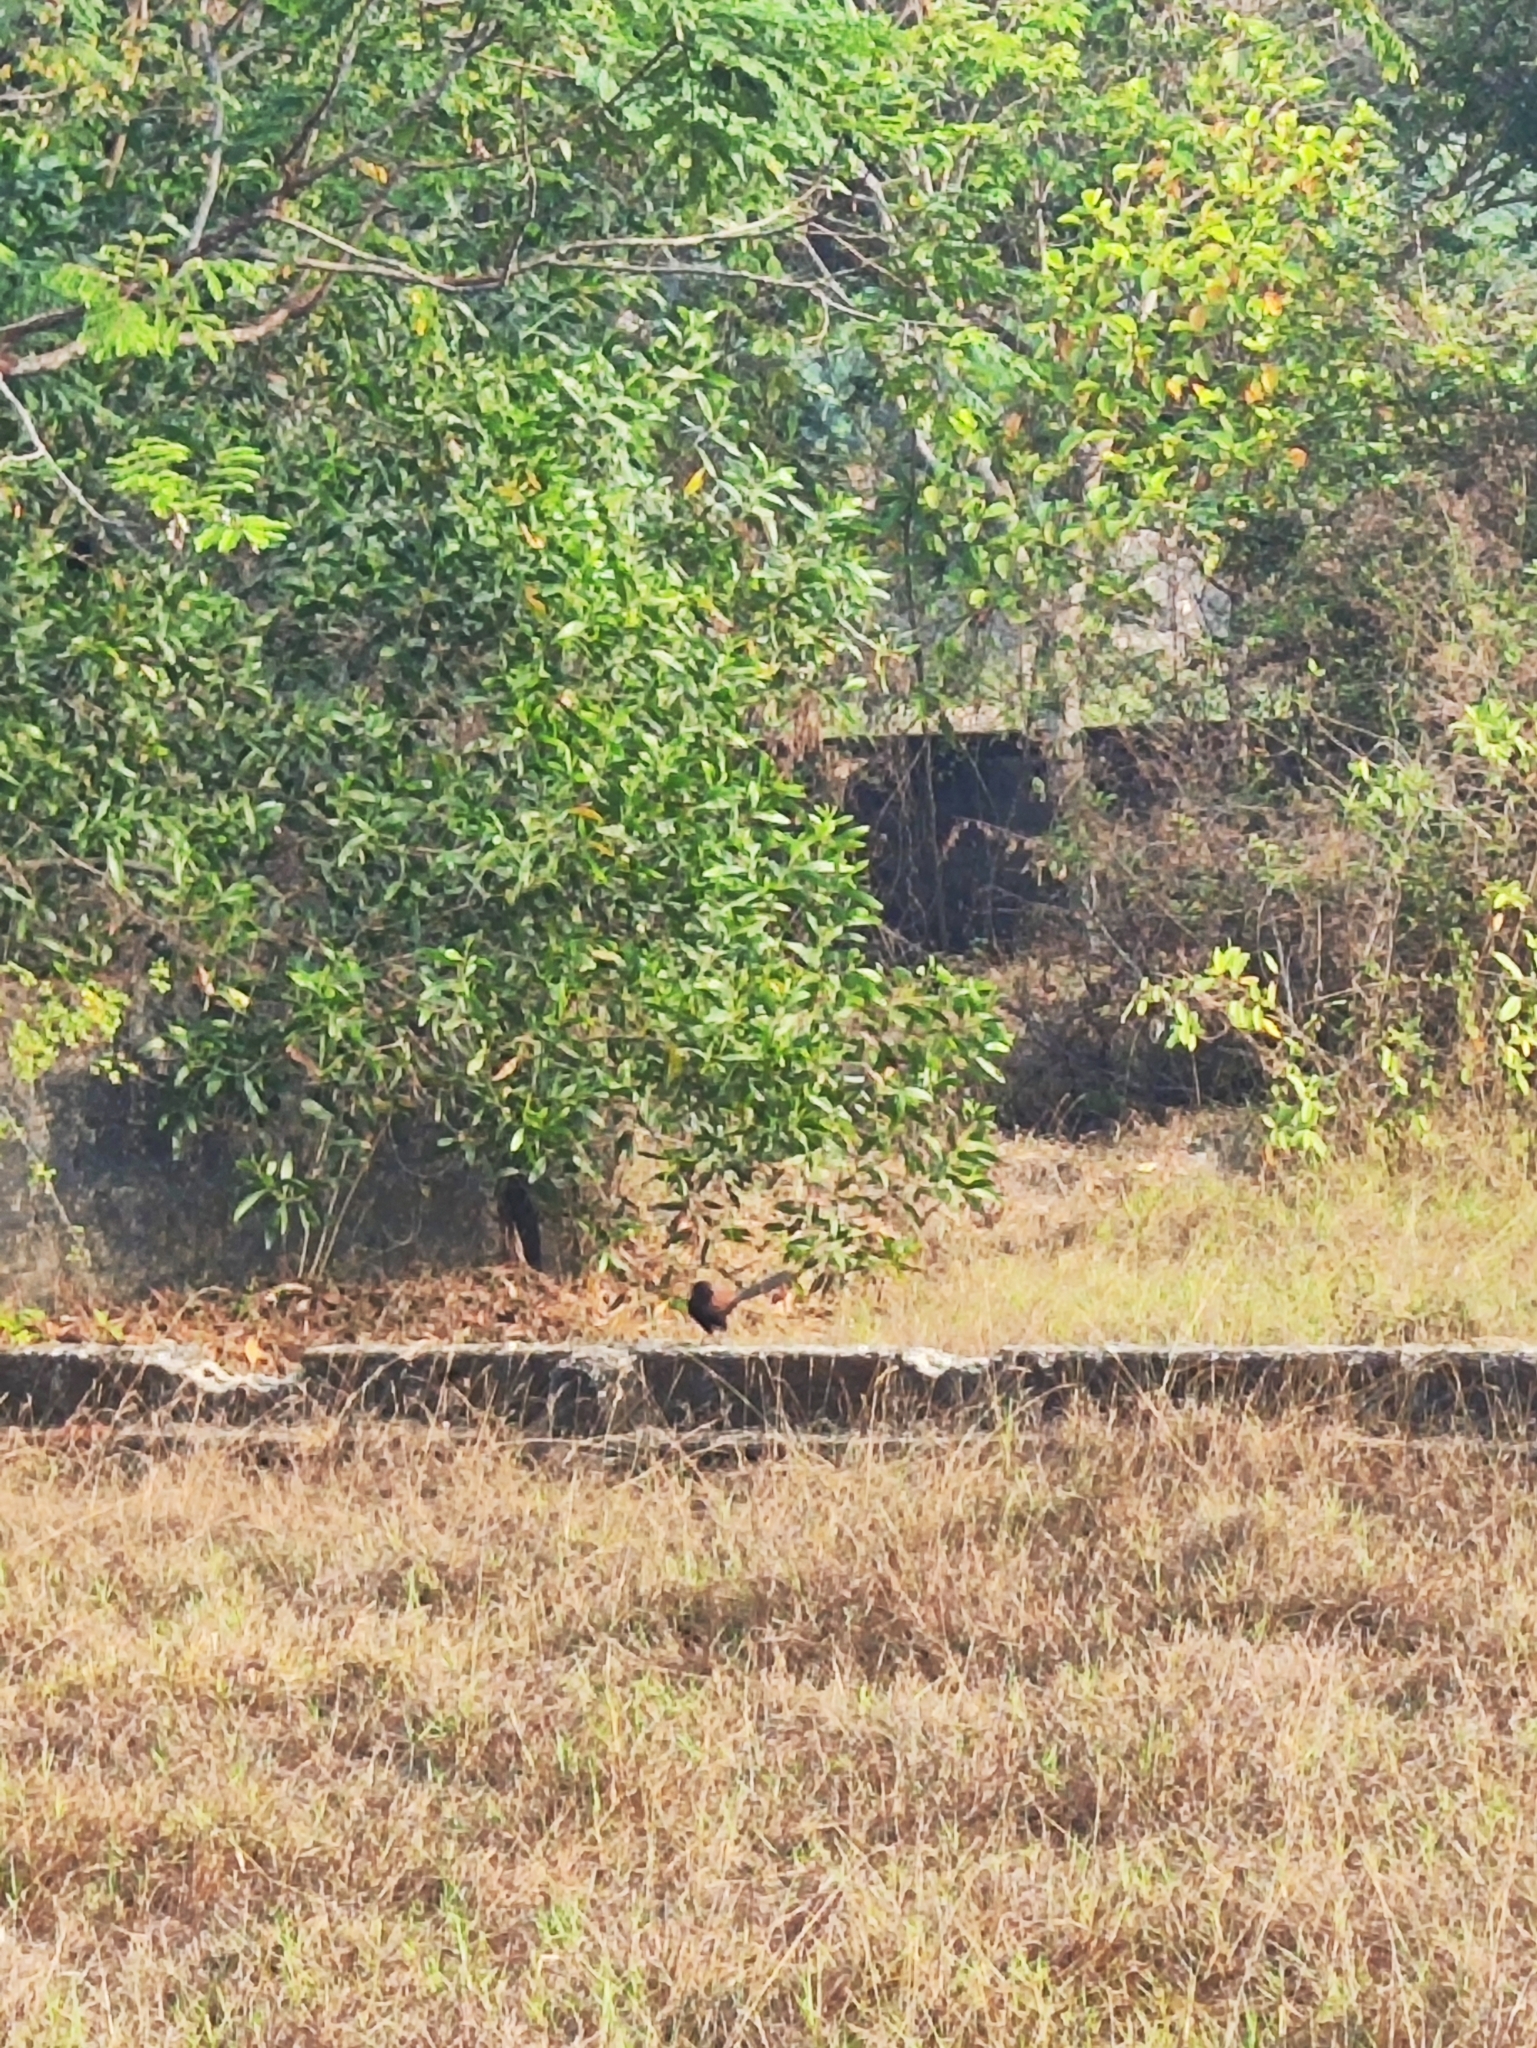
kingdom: Animalia
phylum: Chordata
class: Aves
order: Cuculiformes
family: Cuculidae
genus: Centropus
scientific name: Centropus sinensis
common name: Greater coucal
